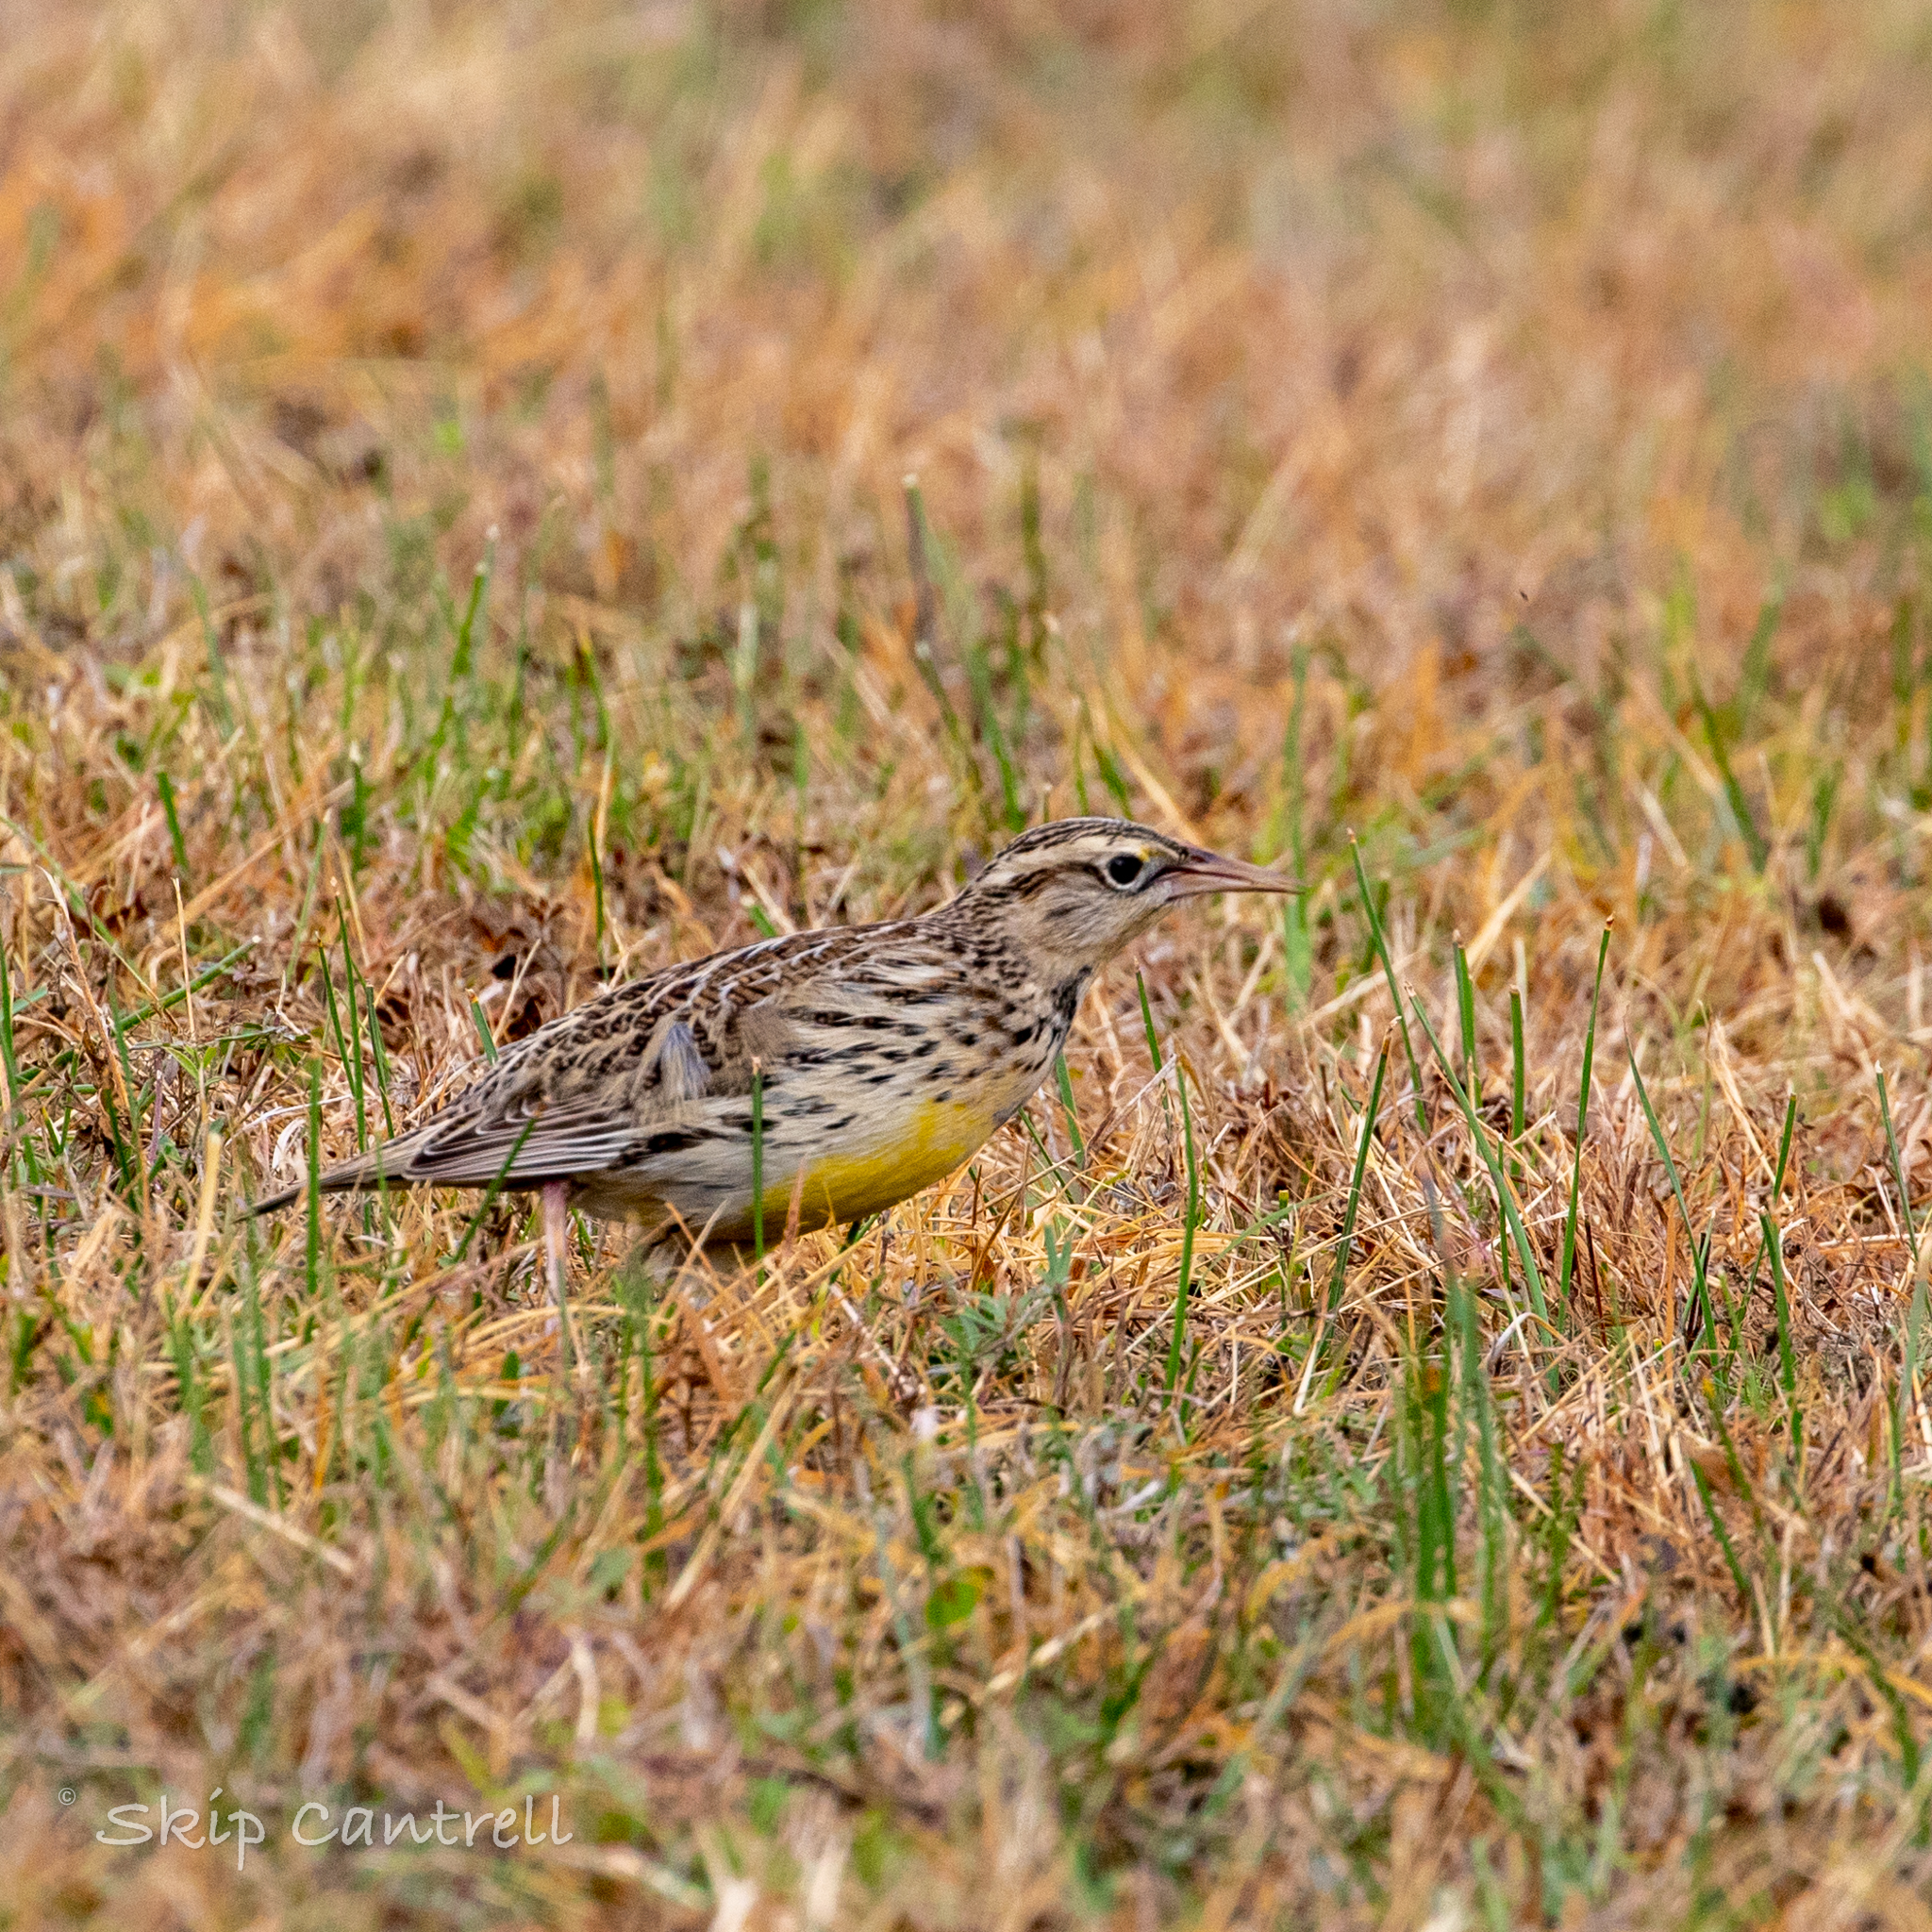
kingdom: Animalia
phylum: Chordata
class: Aves
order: Passeriformes
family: Icteridae
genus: Sturnella
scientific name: Sturnella neglecta
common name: Western meadowlark
